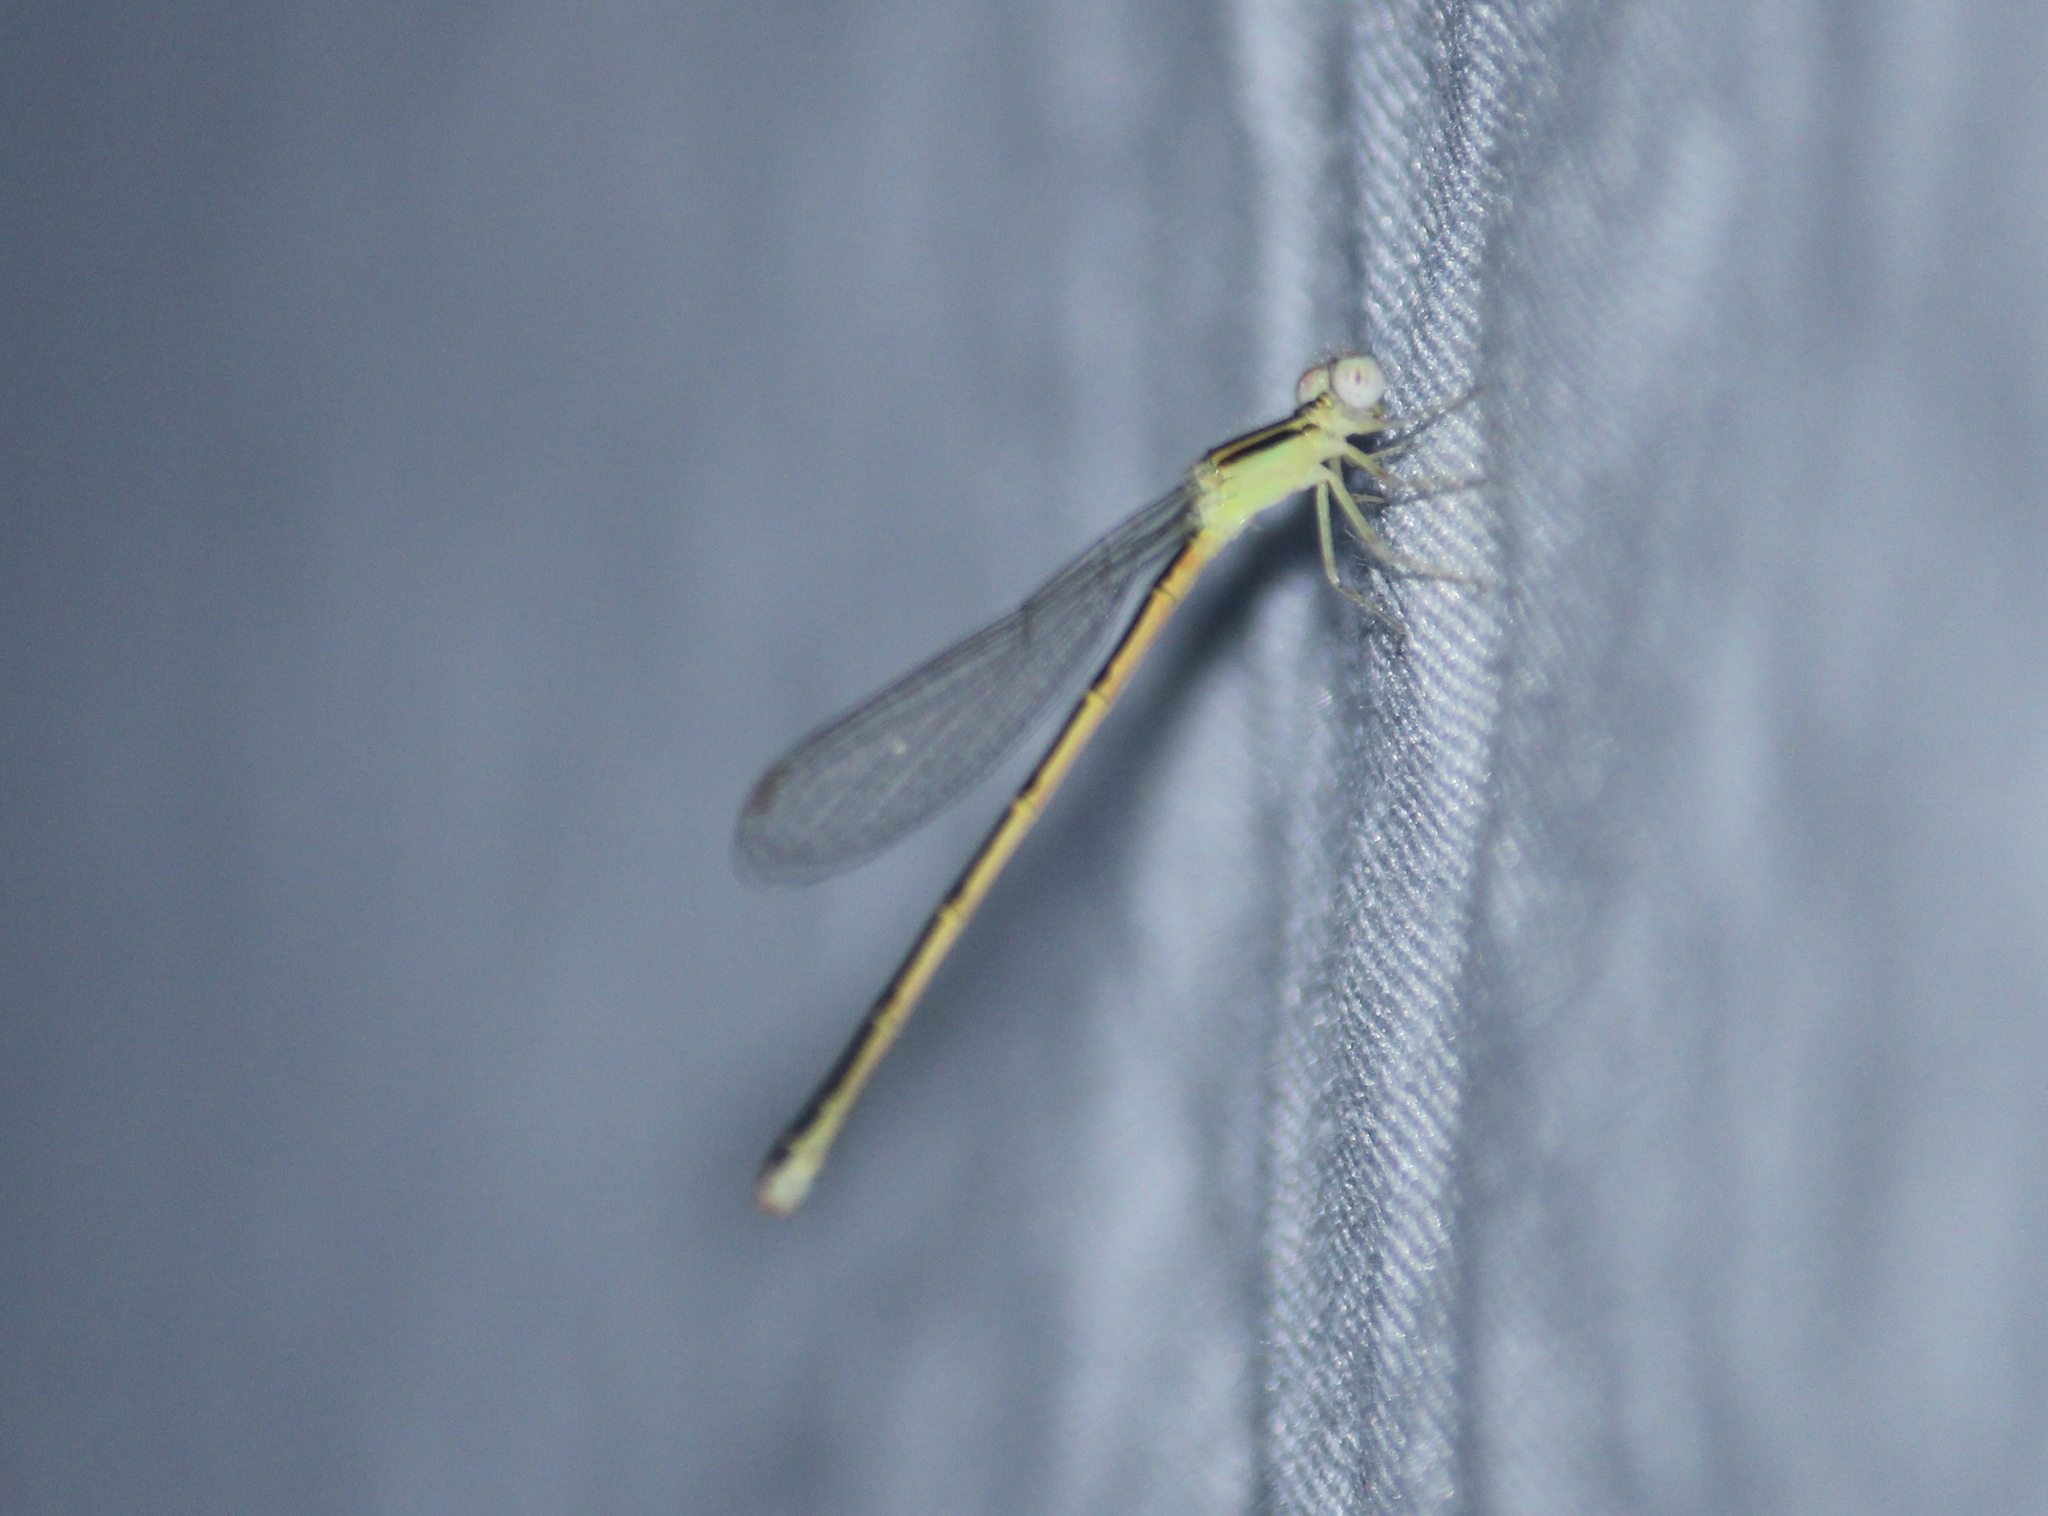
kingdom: Animalia
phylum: Arthropoda
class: Insecta
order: Odonata
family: Coenagrionidae
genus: Ischnura
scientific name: Ischnura rubilio
